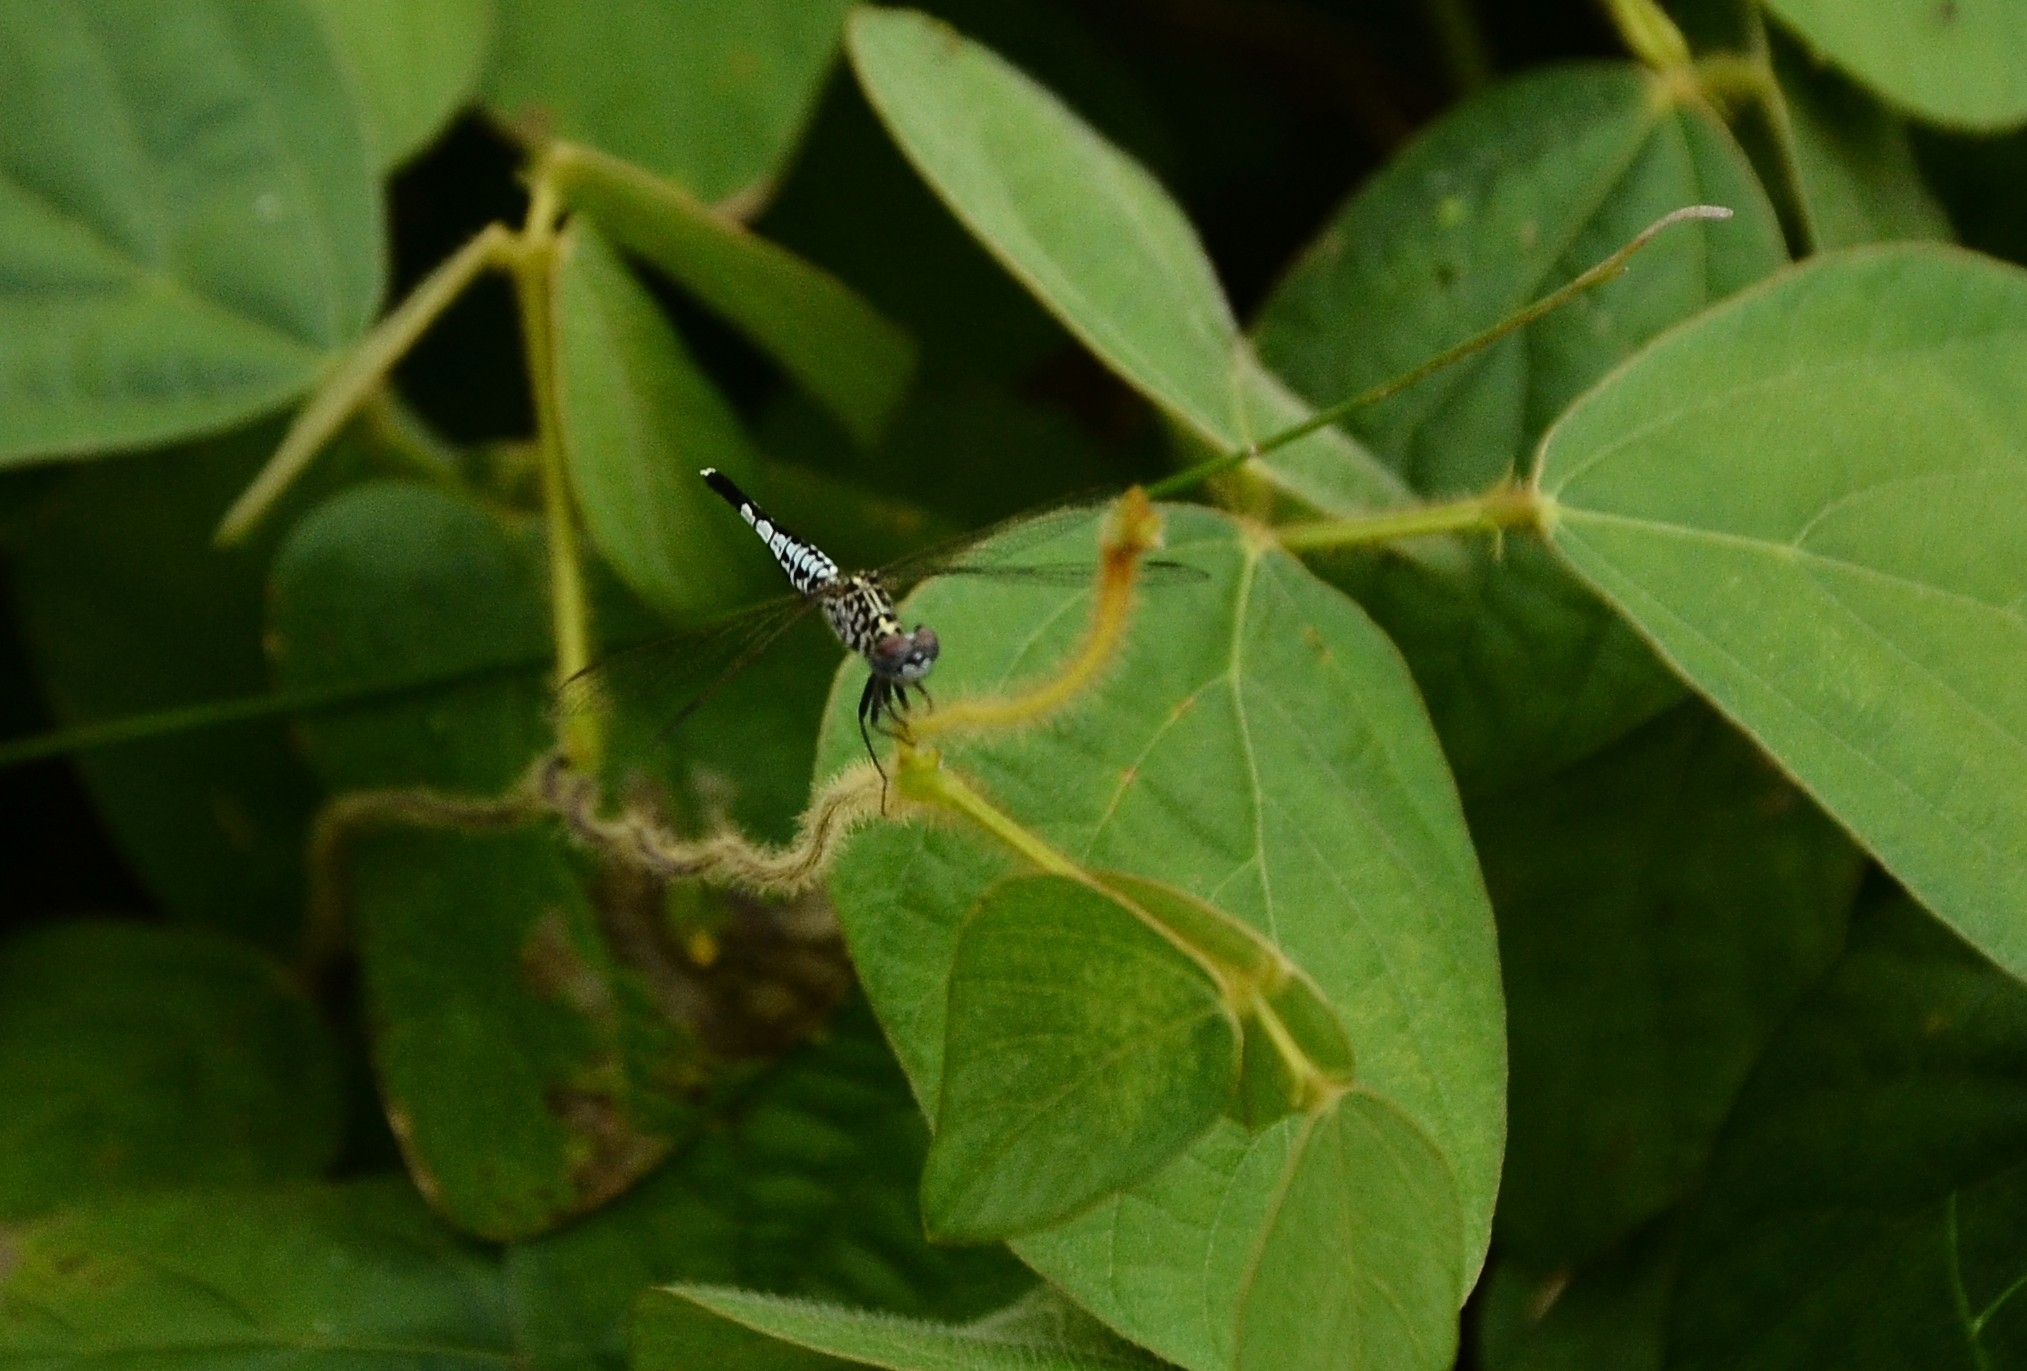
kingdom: Animalia
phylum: Arthropoda
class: Insecta
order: Odonata
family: Libellulidae
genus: Acisoma
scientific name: Acisoma panorpoides
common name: Asian pintail
